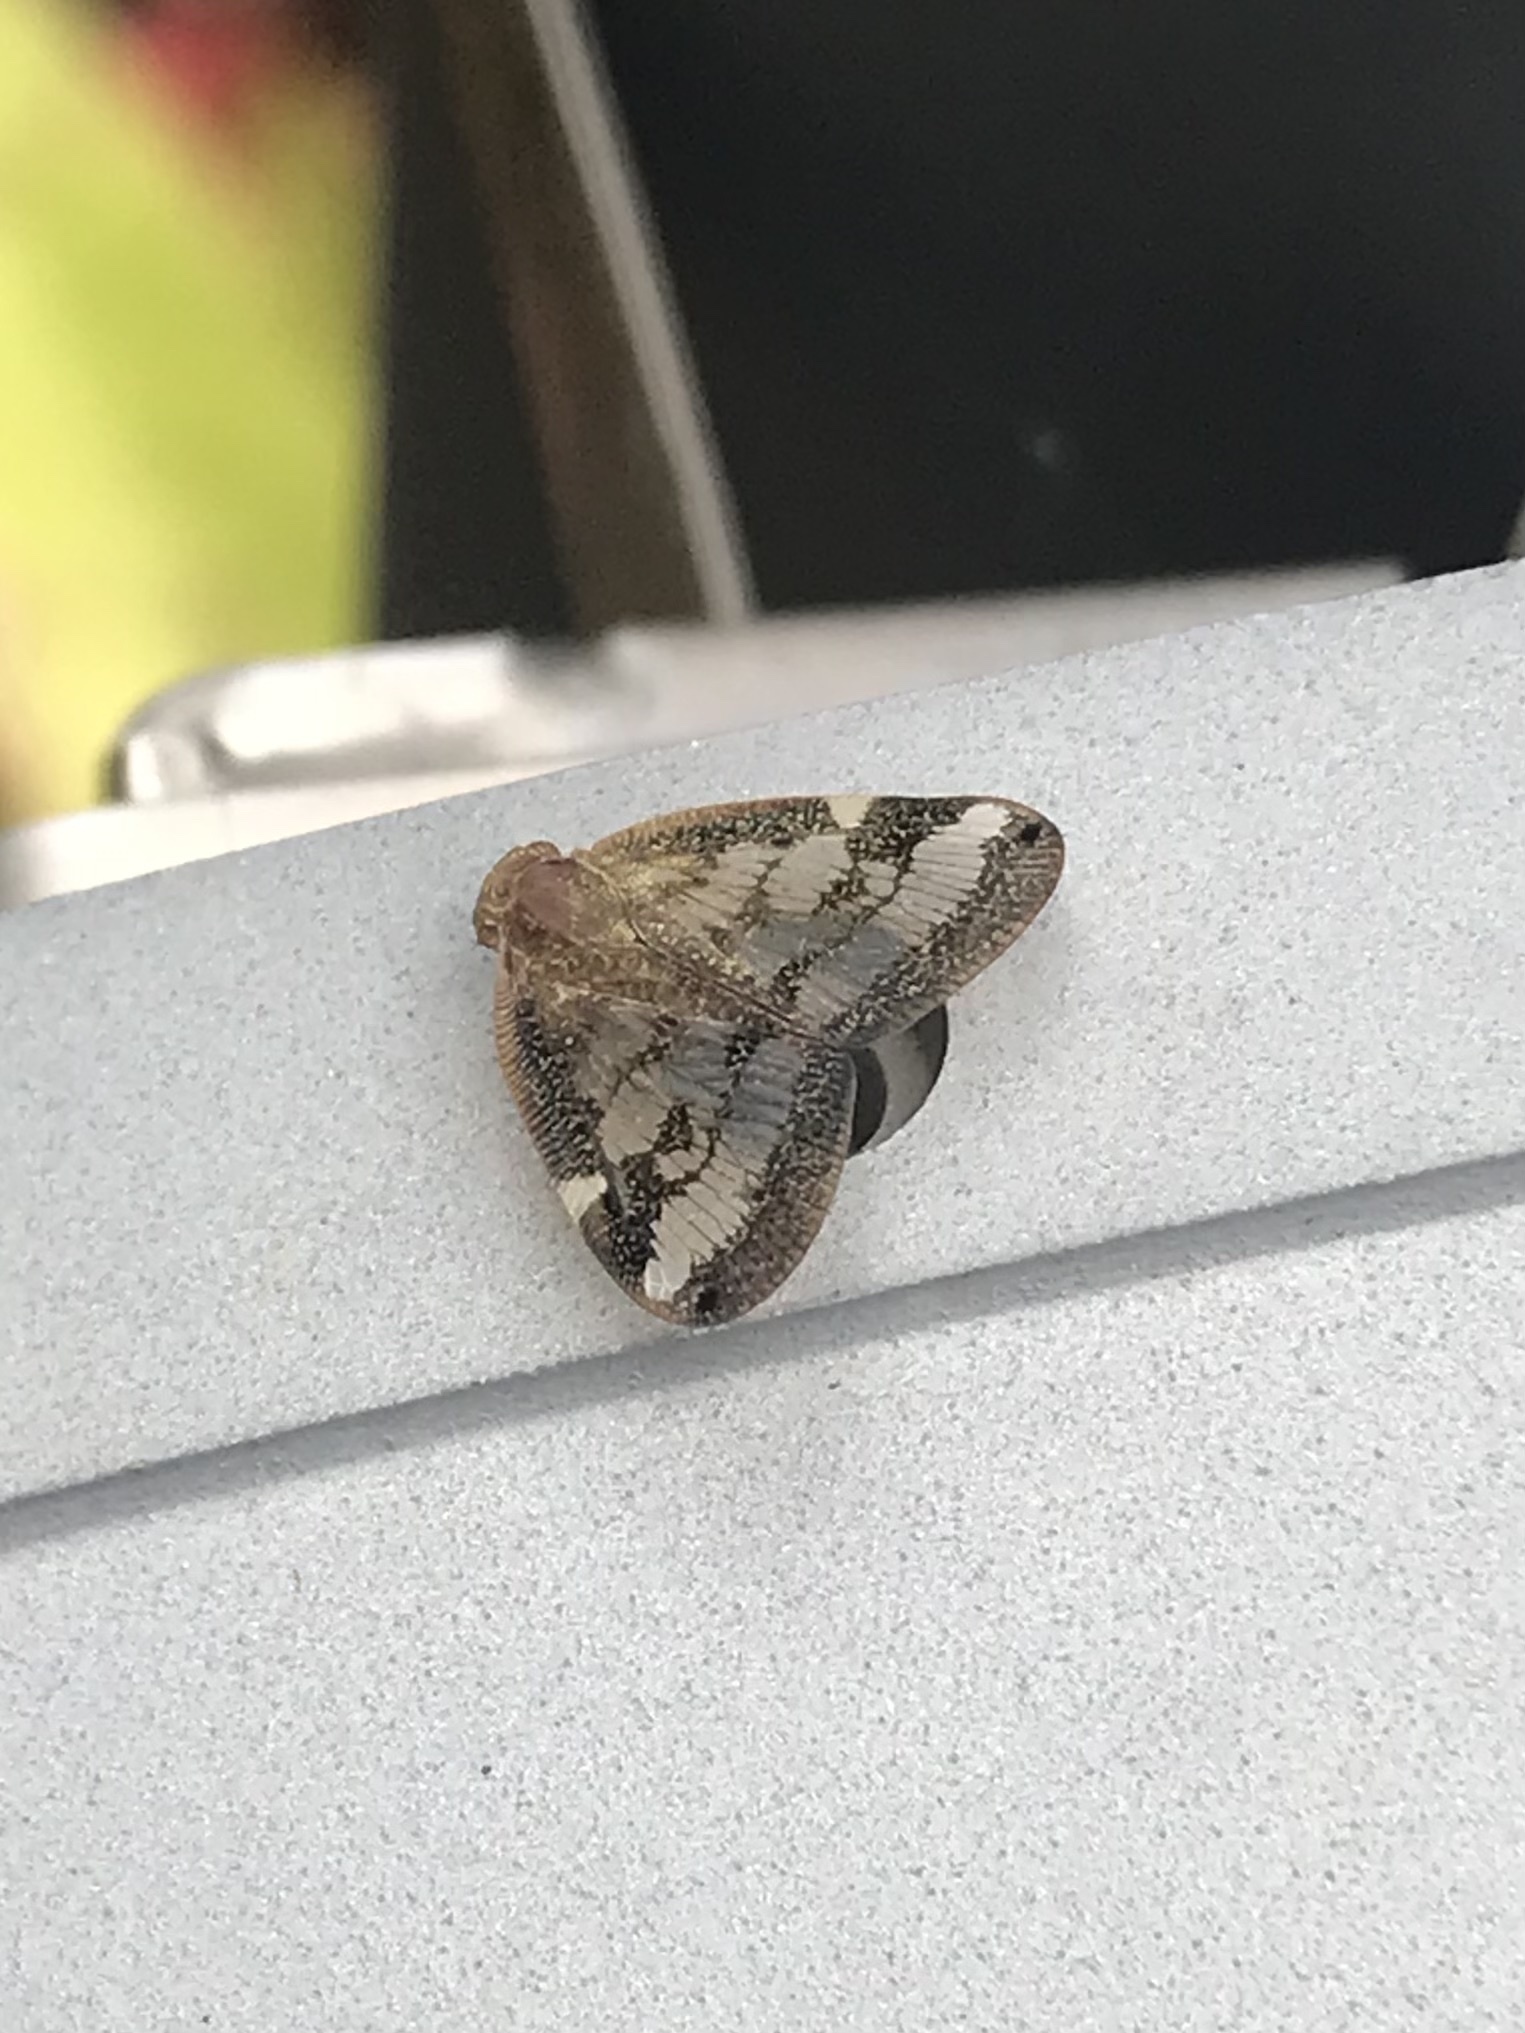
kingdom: Animalia
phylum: Arthropoda
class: Insecta
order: Hemiptera
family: Ricaniidae
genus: Scolypopa
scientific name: Scolypopa australis
